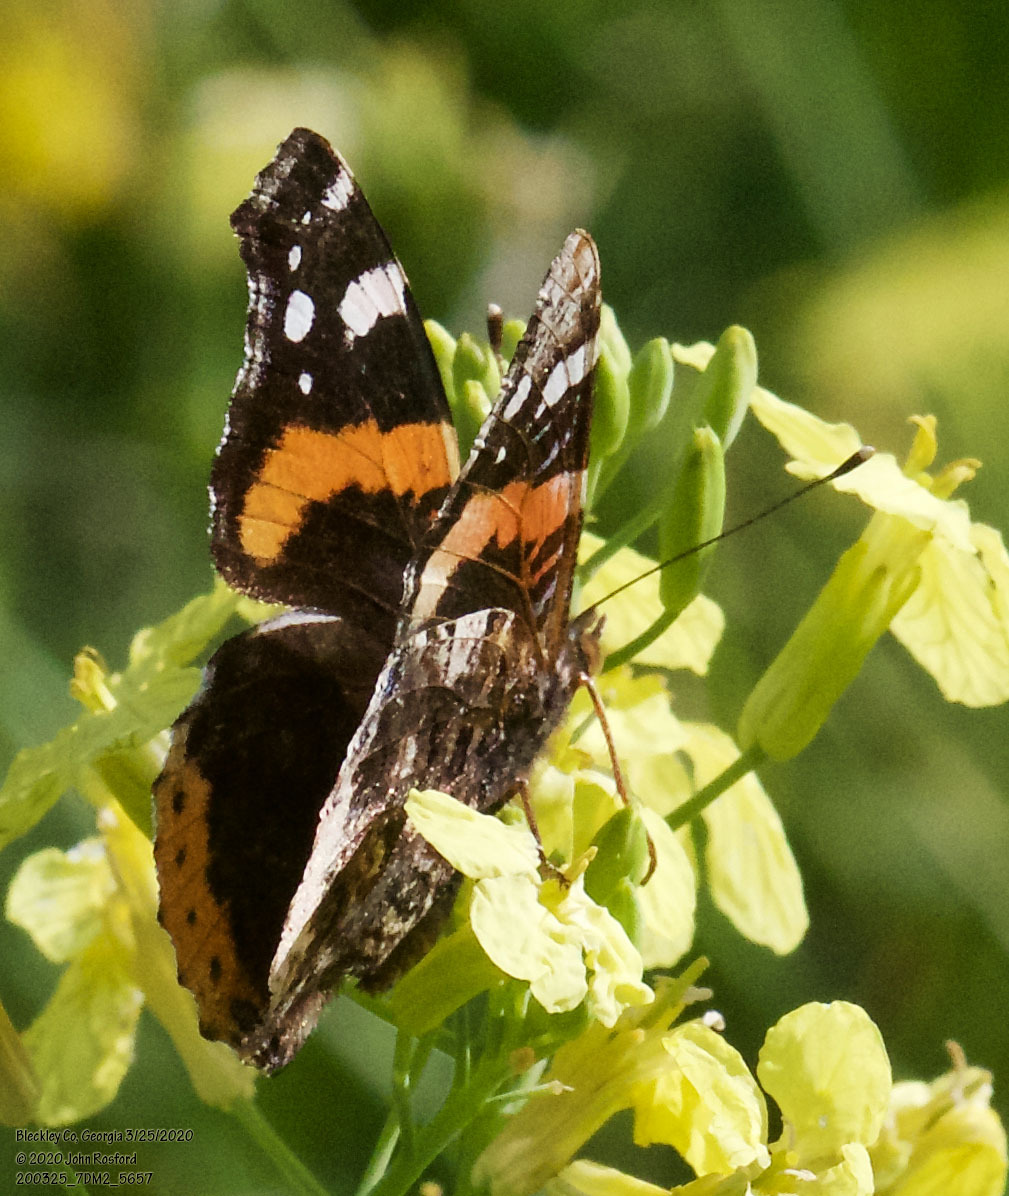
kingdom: Animalia
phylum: Arthropoda
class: Insecta
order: Lepidoptera
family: Nymphalidae
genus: Vanessa
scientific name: Vanessa atalanta
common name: Red admiral
